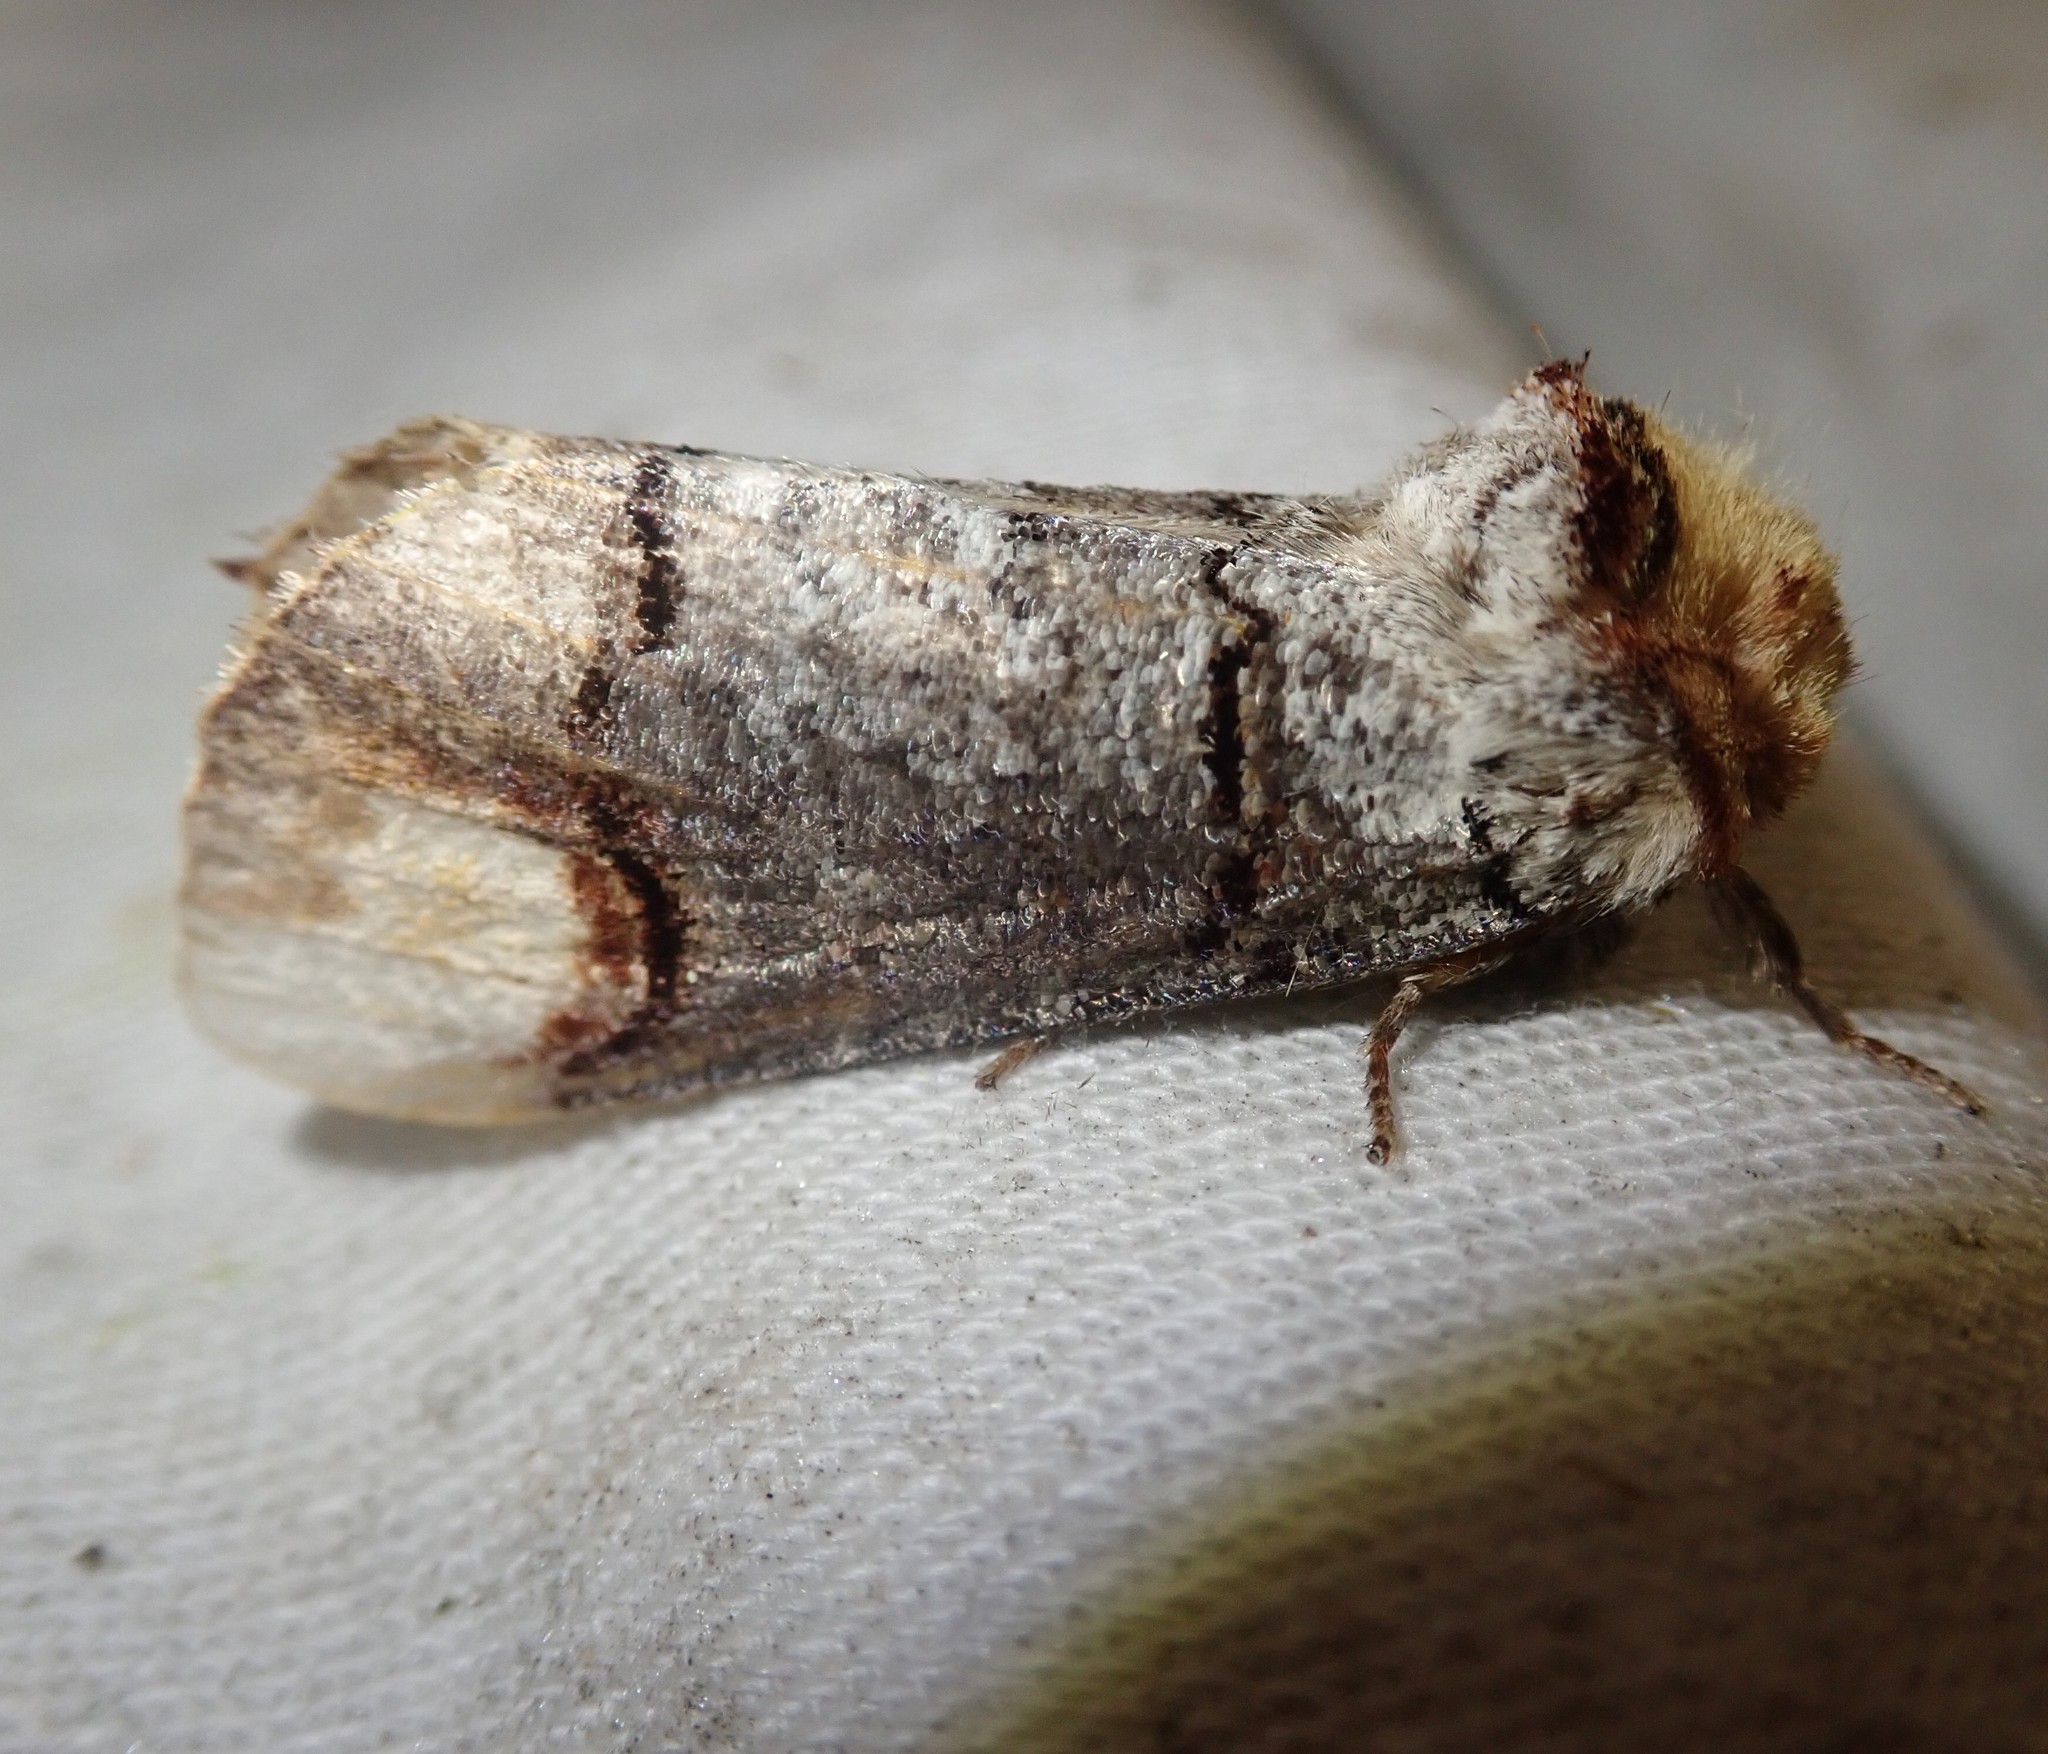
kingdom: Animalia
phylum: Arthropoda
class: Insecta
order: Lepidoptera
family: Notodontidae
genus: Phalera
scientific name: Phalera bucephala
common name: Buff-tip
